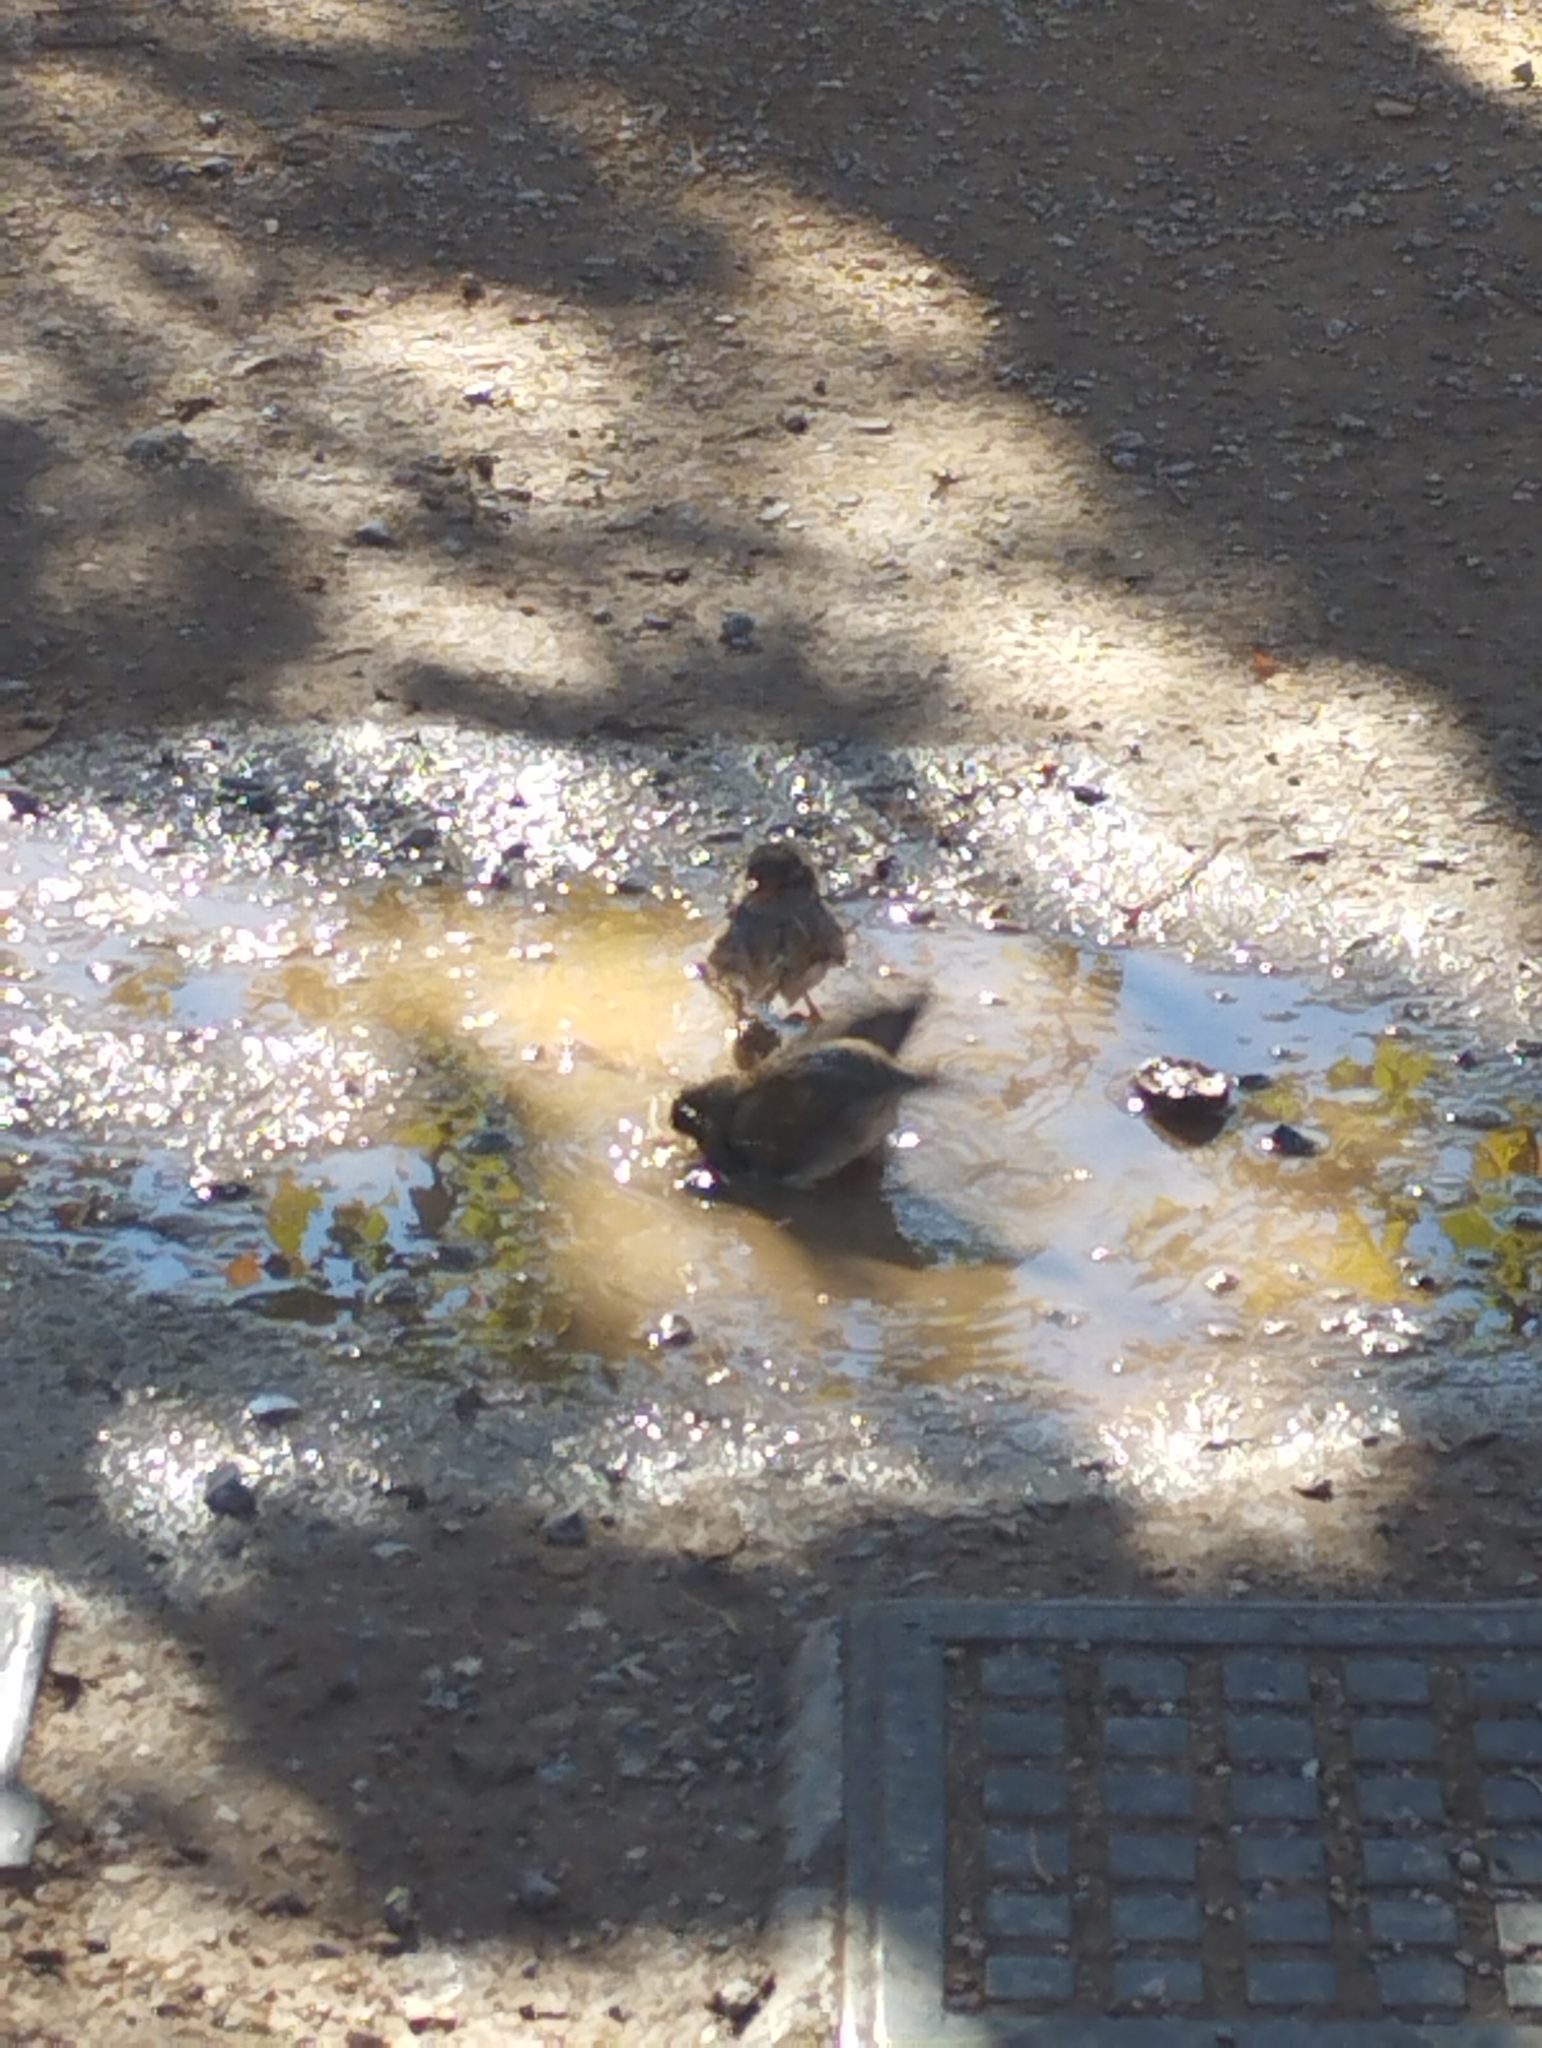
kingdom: Animalia
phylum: Chordata
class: Aves
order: Passeriformes
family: Passeridae
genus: Passer
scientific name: Passer domesticus
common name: House sparrow
